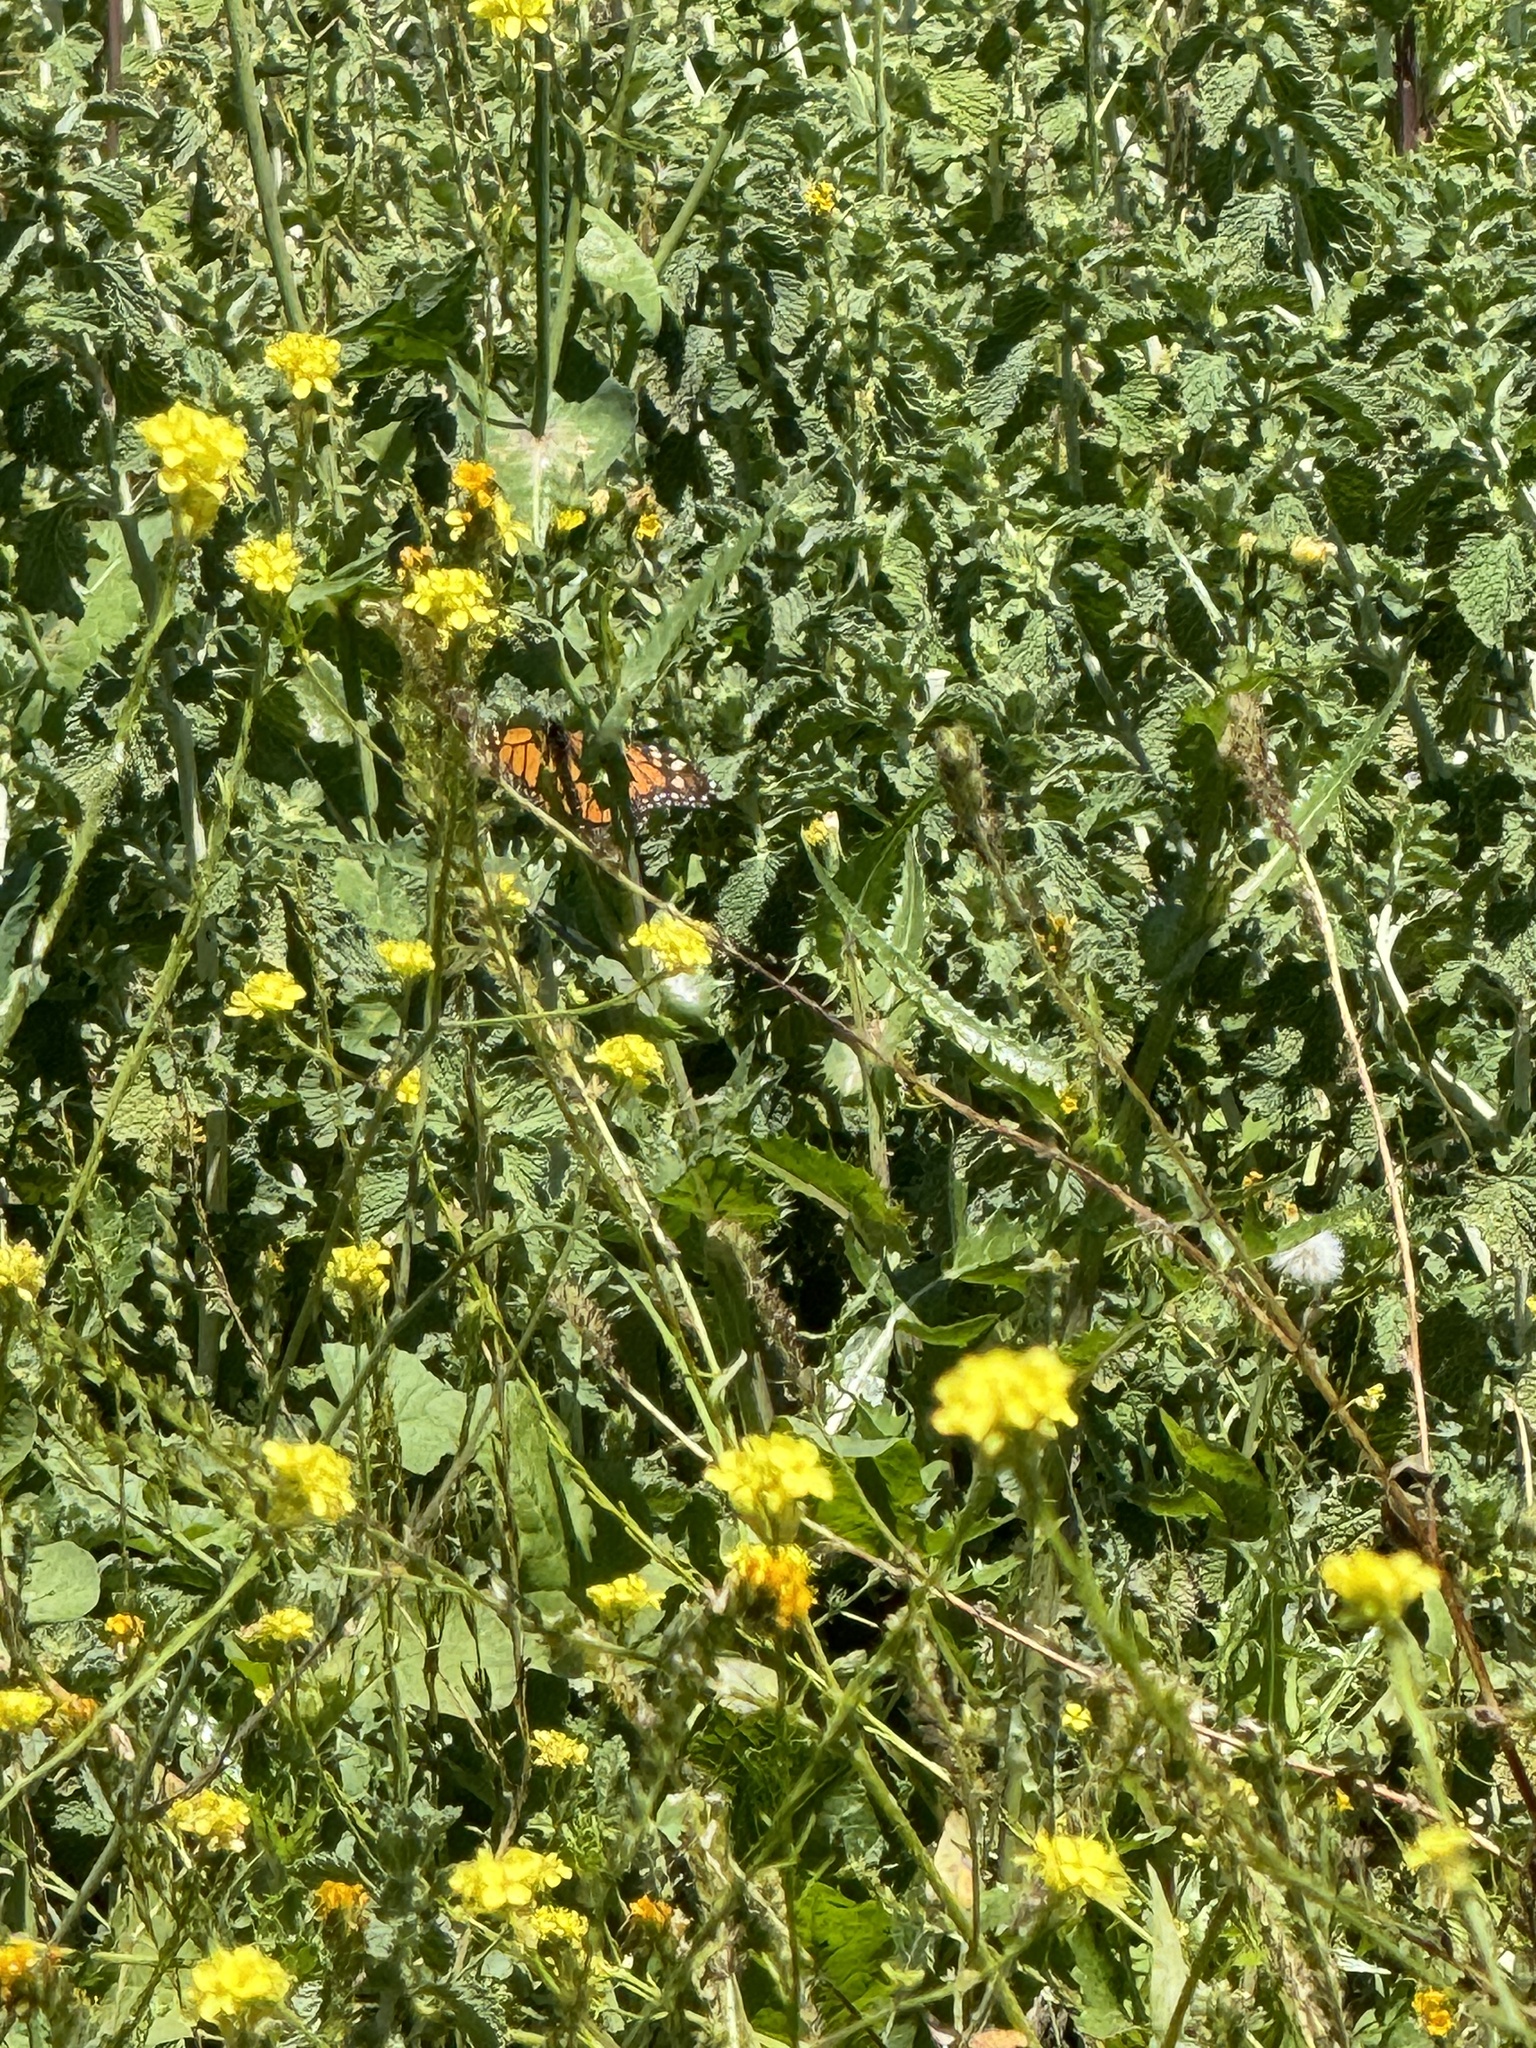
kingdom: Animalia
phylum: Arthropoda
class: Insecta
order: Lepidoptera
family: Nymphalidae
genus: Danaus
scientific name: Danaus plexippus
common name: Monarch
